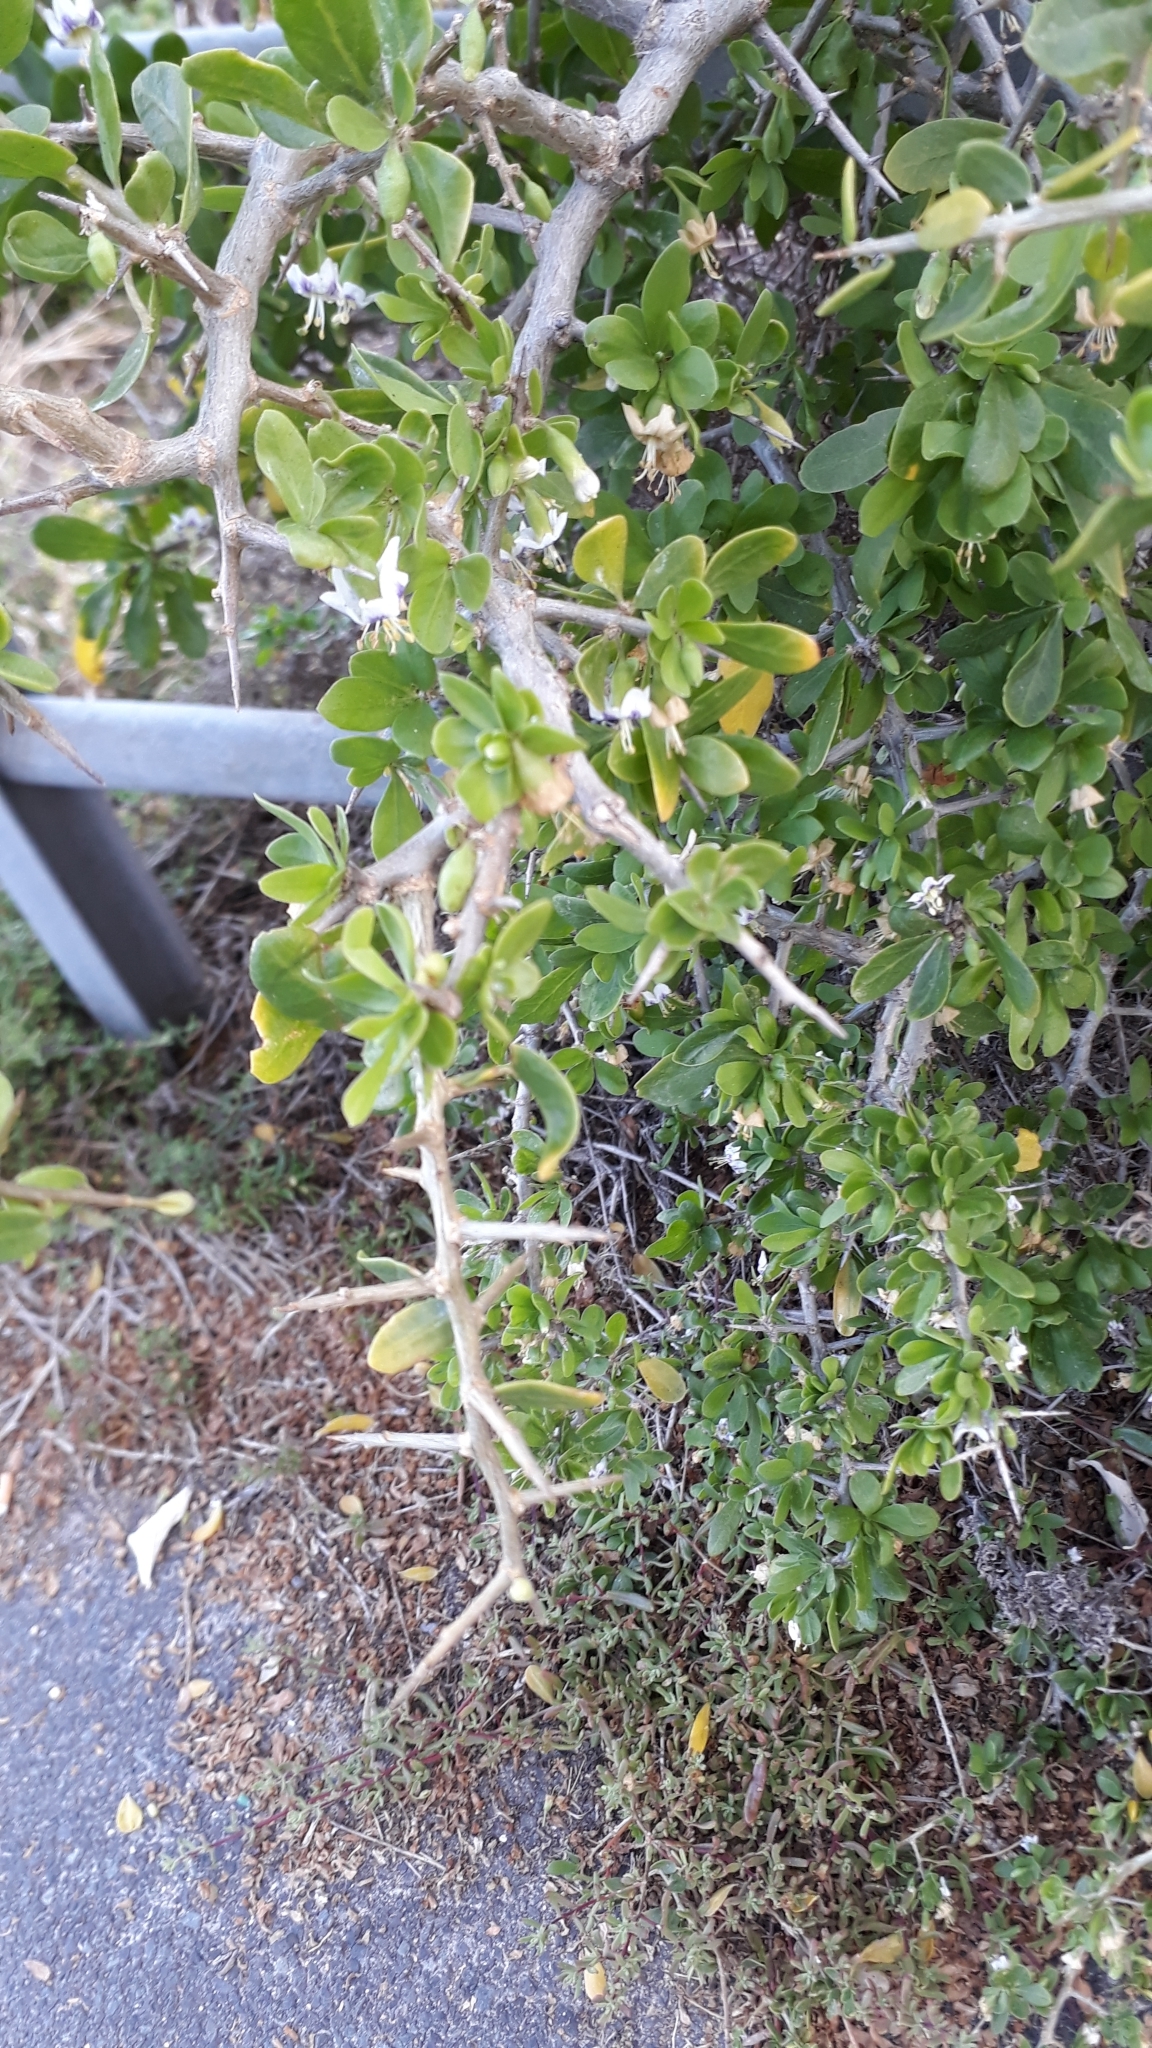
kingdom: Plantae
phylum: Tracheophyta
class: Magnoliopsida
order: Solanales
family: Solanaceae
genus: Lycium
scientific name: Lycium ferocissimum
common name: African boxthorn
